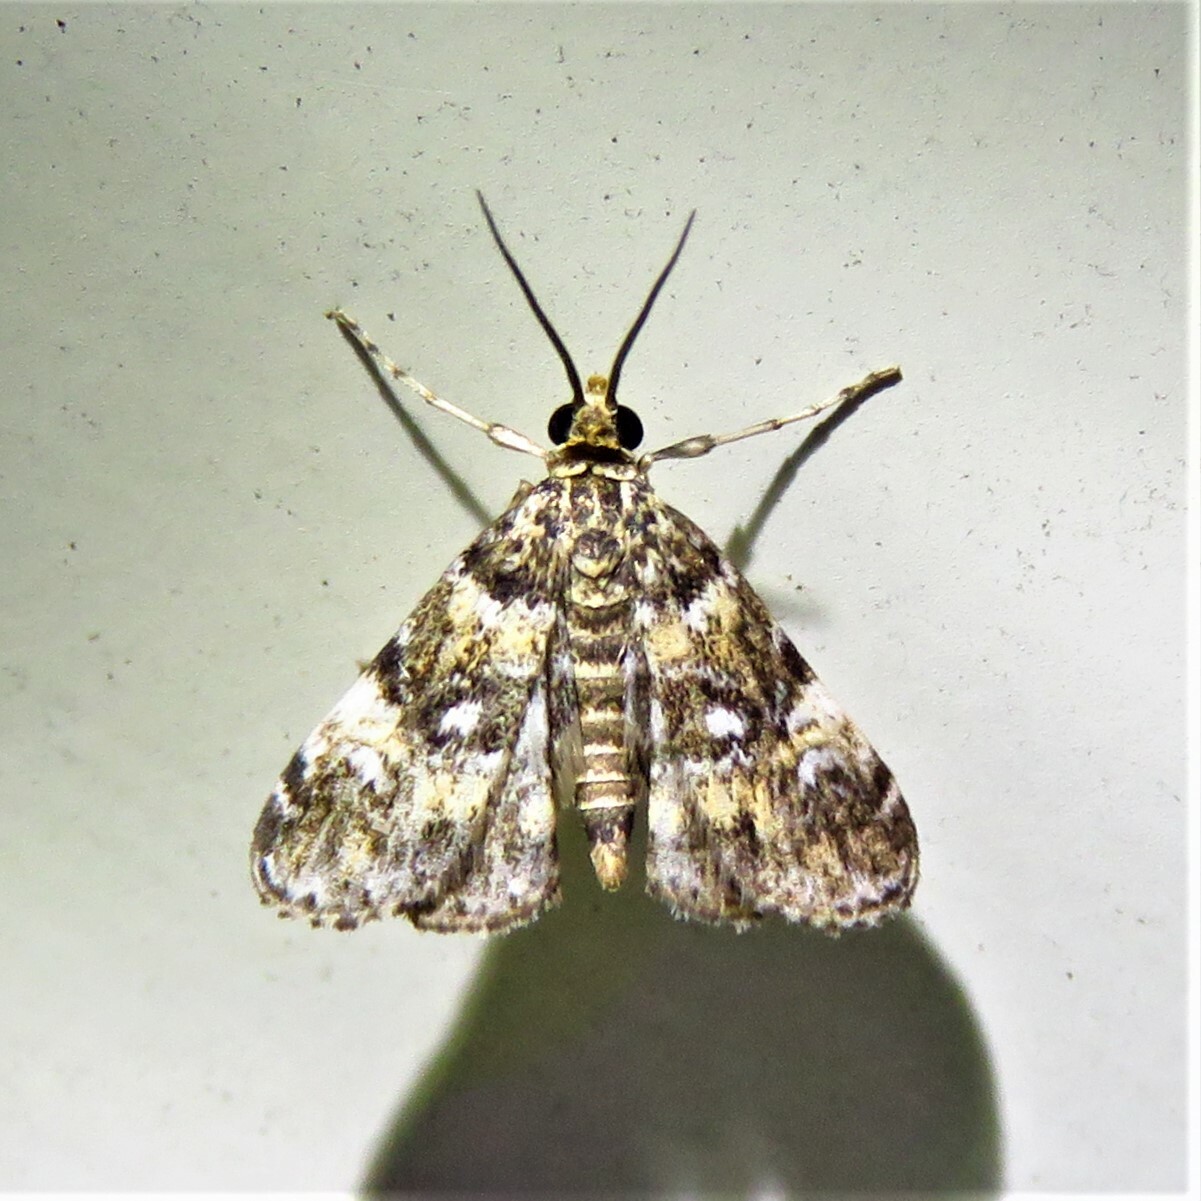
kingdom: Animalia
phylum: Arthropoda
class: Insecta
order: Lepidoptera
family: Crambidae
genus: Elophila
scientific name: Elophila obliteralis
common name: Waterlily leafcutter moth
